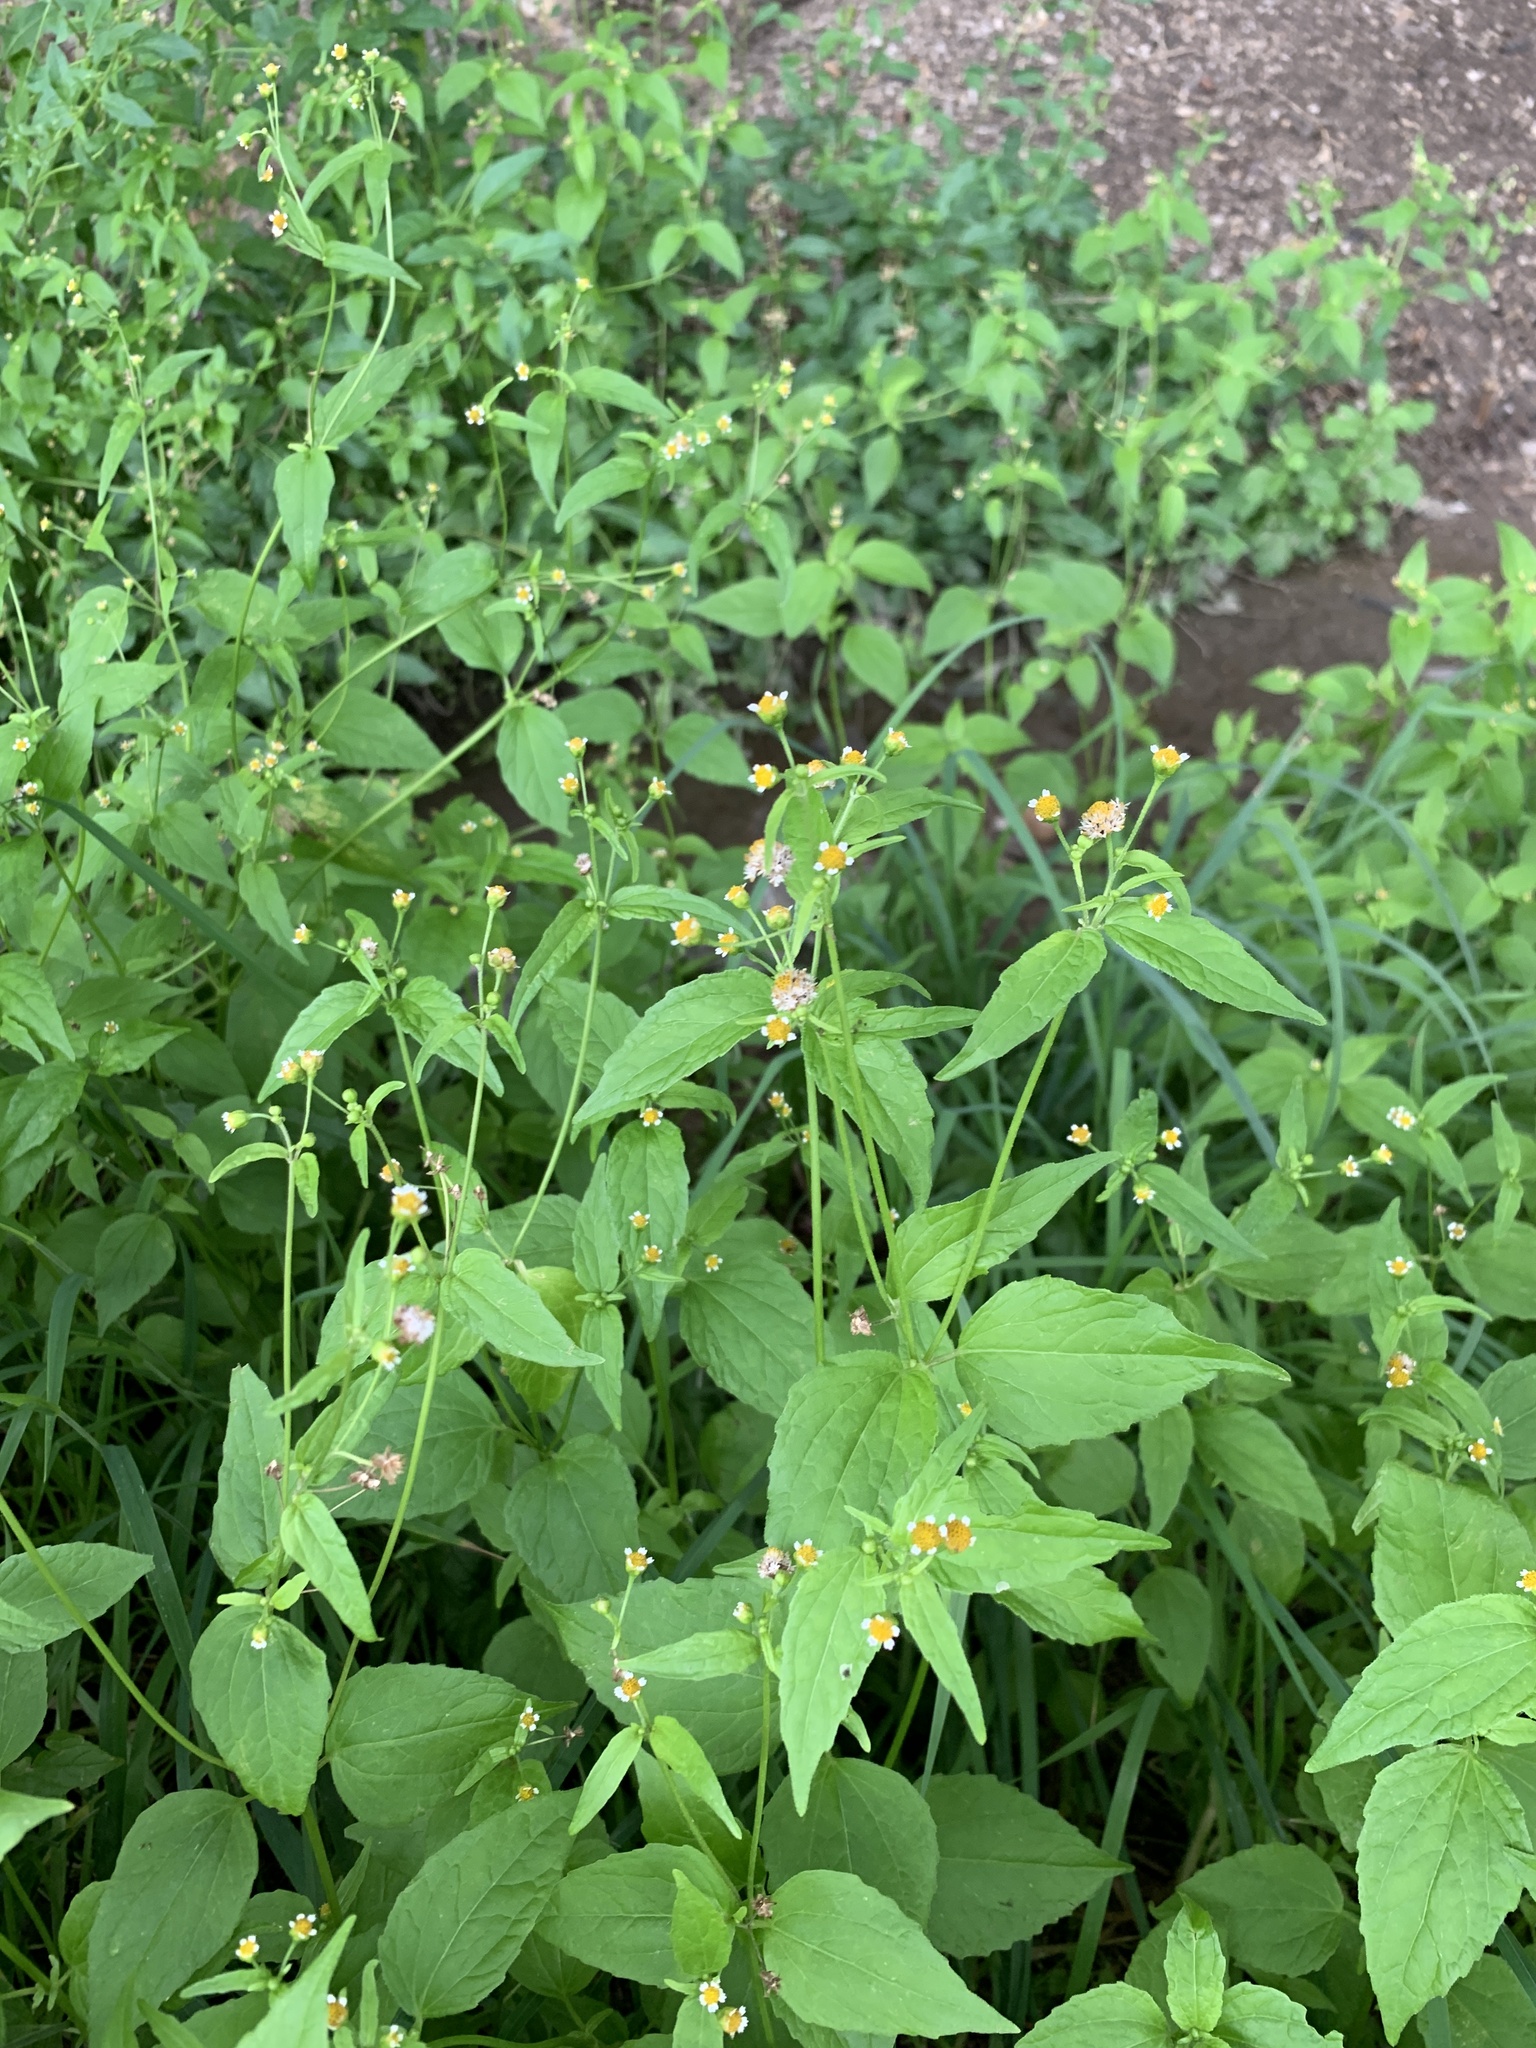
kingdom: Plantae
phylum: Tracheophyta
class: Magnoliopsida
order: Asterales
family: Asteraceae
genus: Galinsoga
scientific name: Galinsoga parviflora
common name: Gallant soldier
